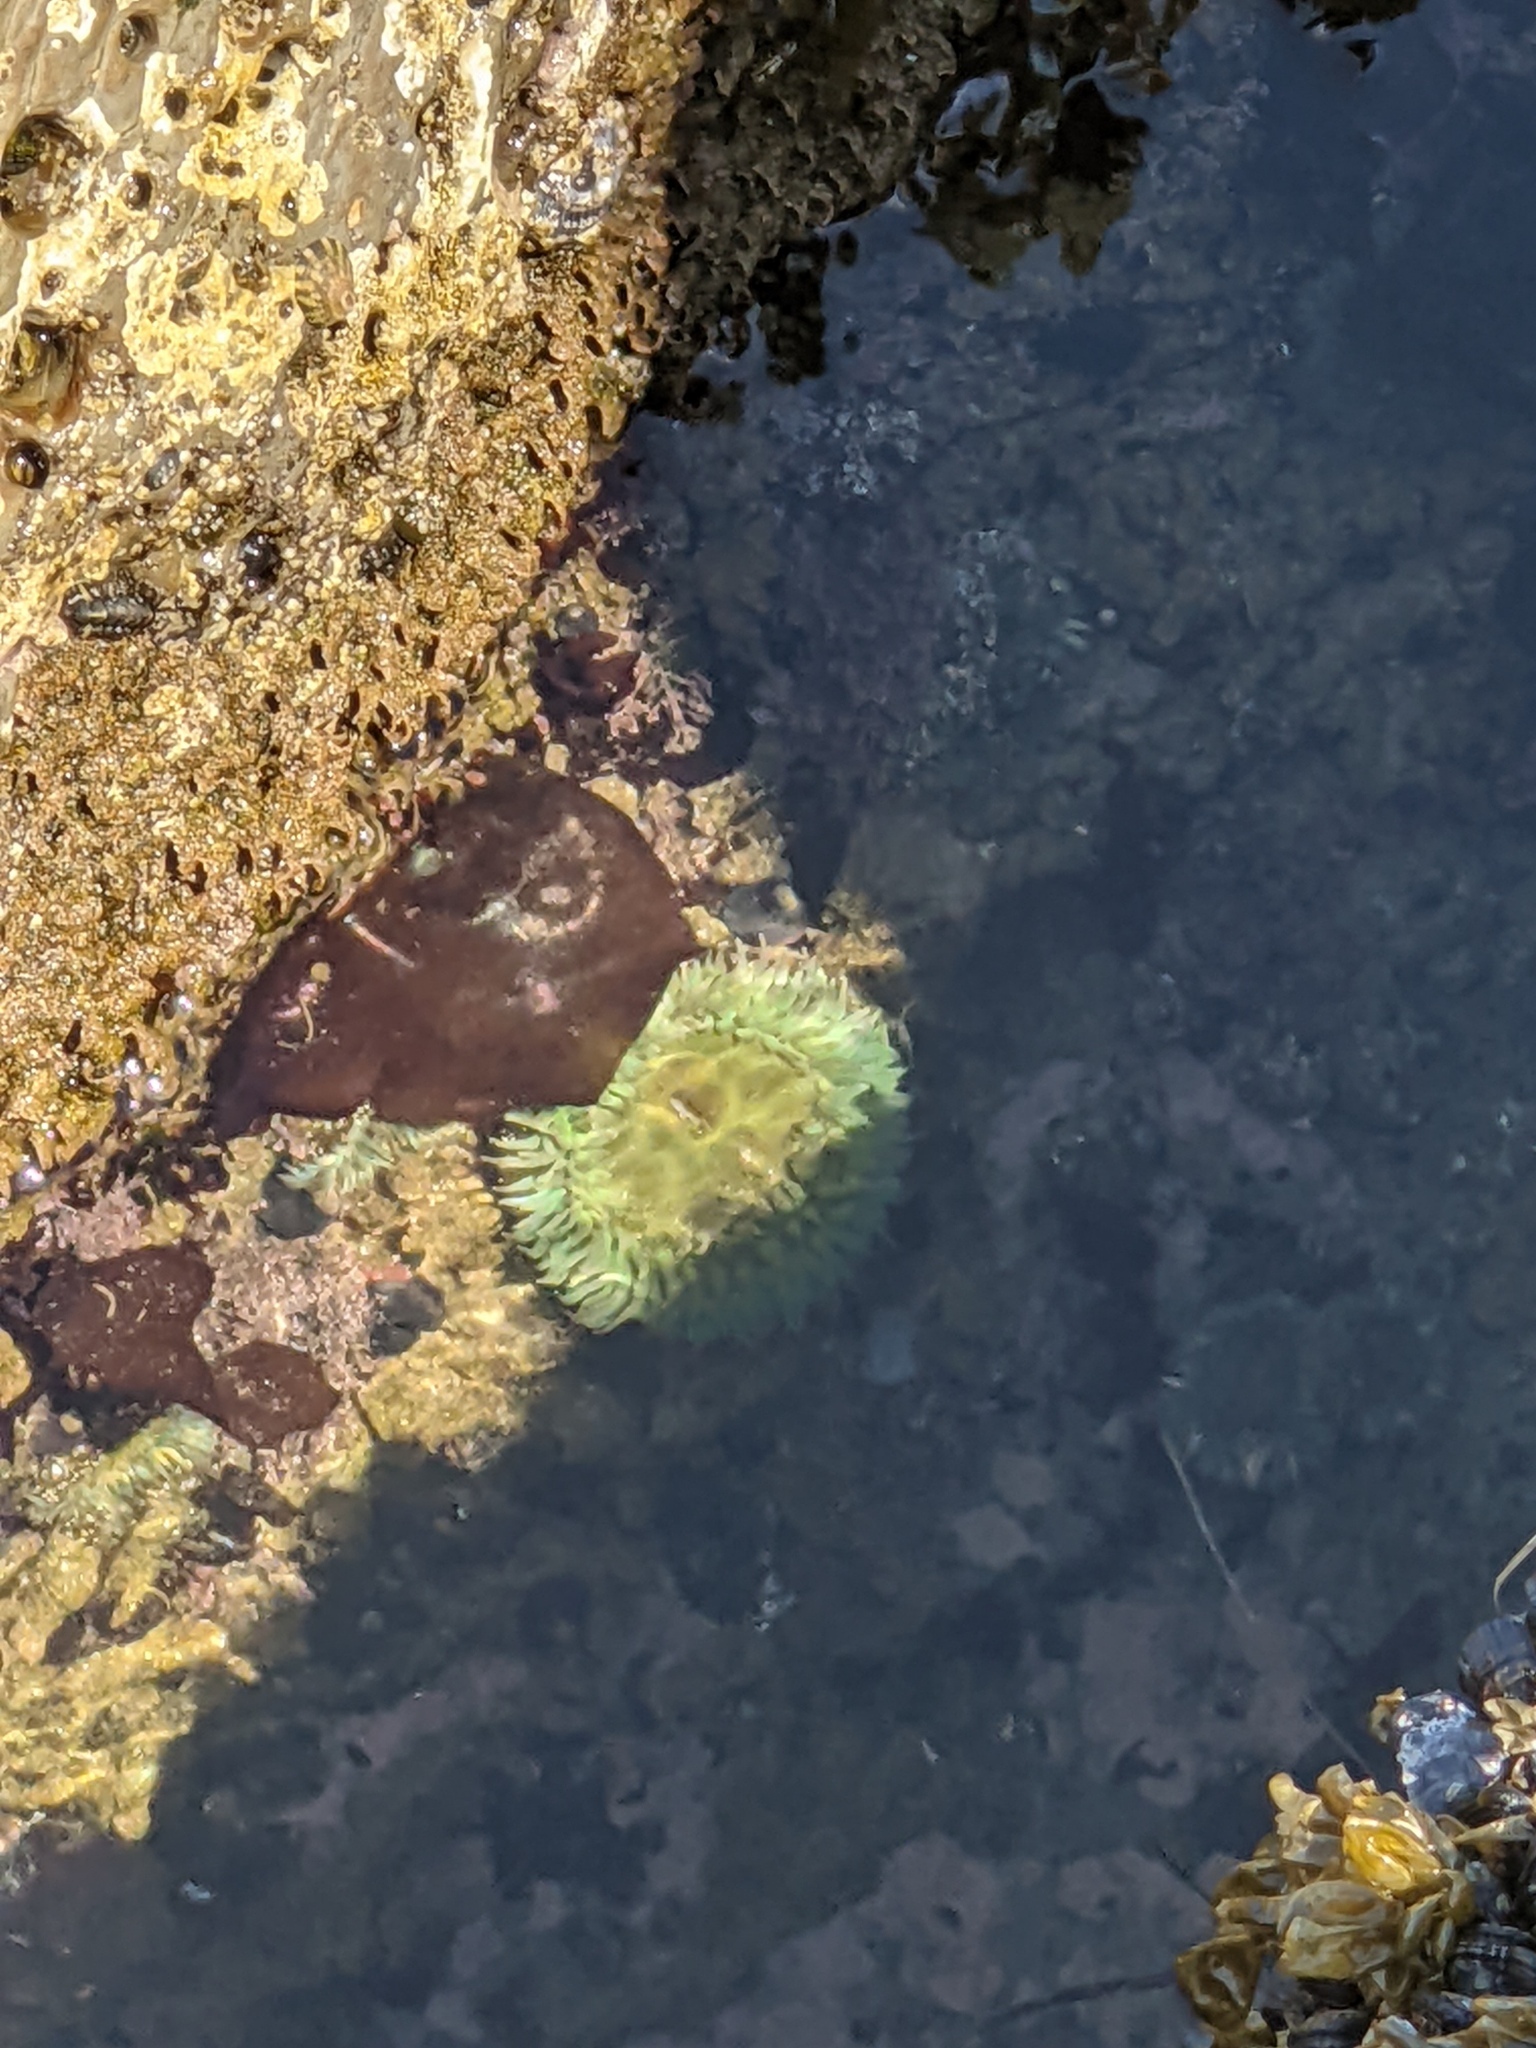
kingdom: Animalia
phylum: Cnidaria
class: Anthozoa
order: Actiniaria
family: Actiniidae
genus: Anthopleura
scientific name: Anthopleura xanthogrammica
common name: Giant green anemone
